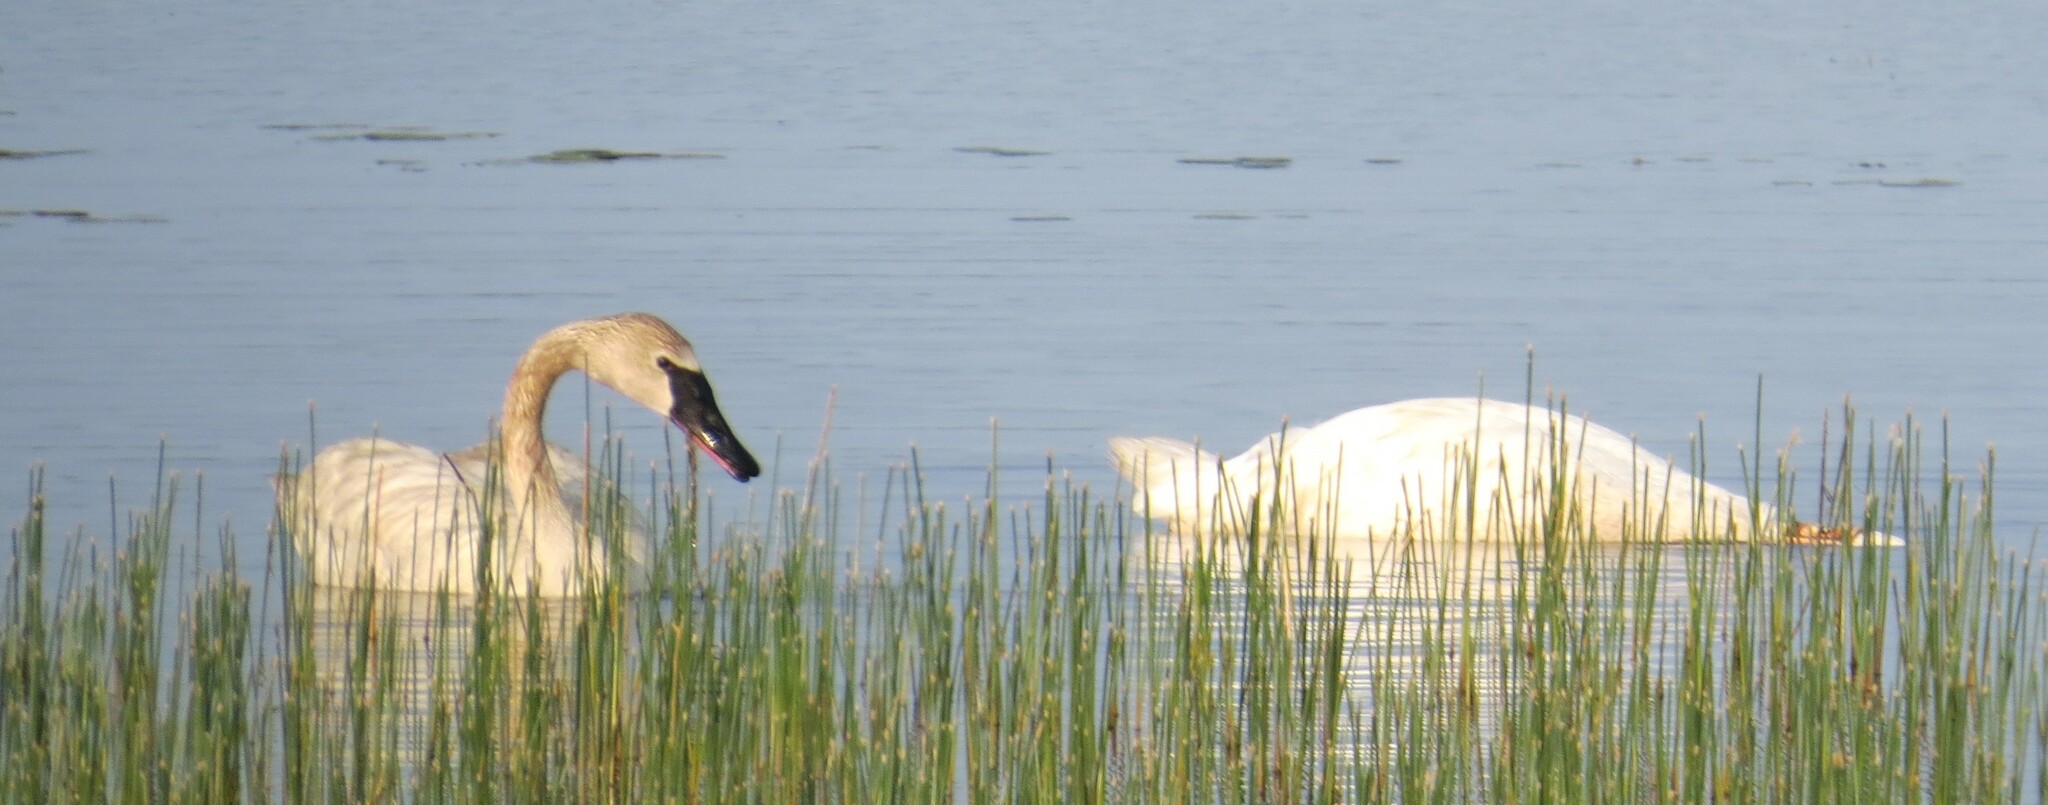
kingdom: Animalia
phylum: Chordata
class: Aves
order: Anseriformes
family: Anatidae
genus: Cygnus
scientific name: Cygnus buccinator
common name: Trumpeter swan
